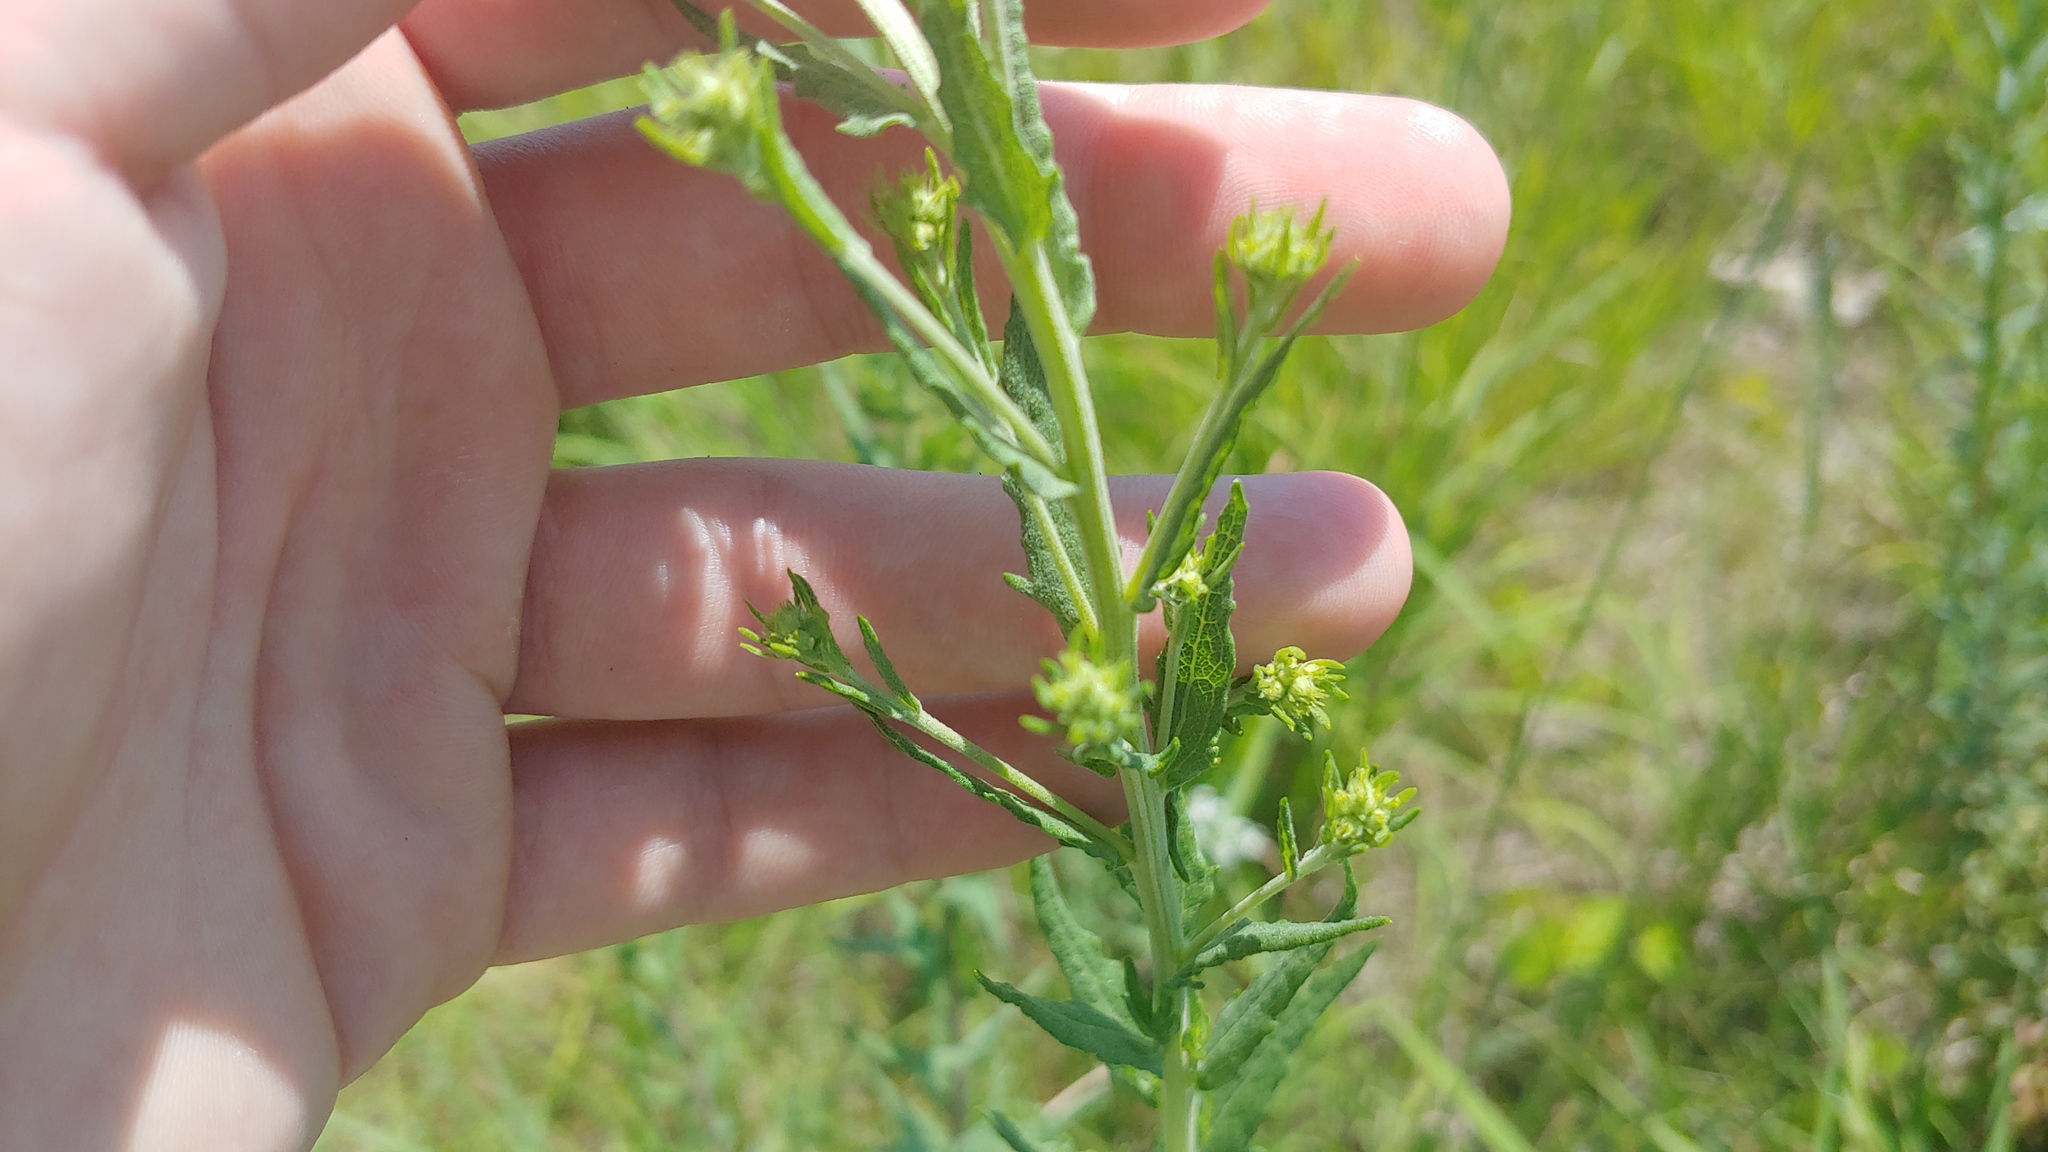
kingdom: Plantae
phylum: Tracheophyta
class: Magnoliopsida
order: Asterales
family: Asteraceae
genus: Brickellia
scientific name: Brickellia eupatorioides
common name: False boneset
